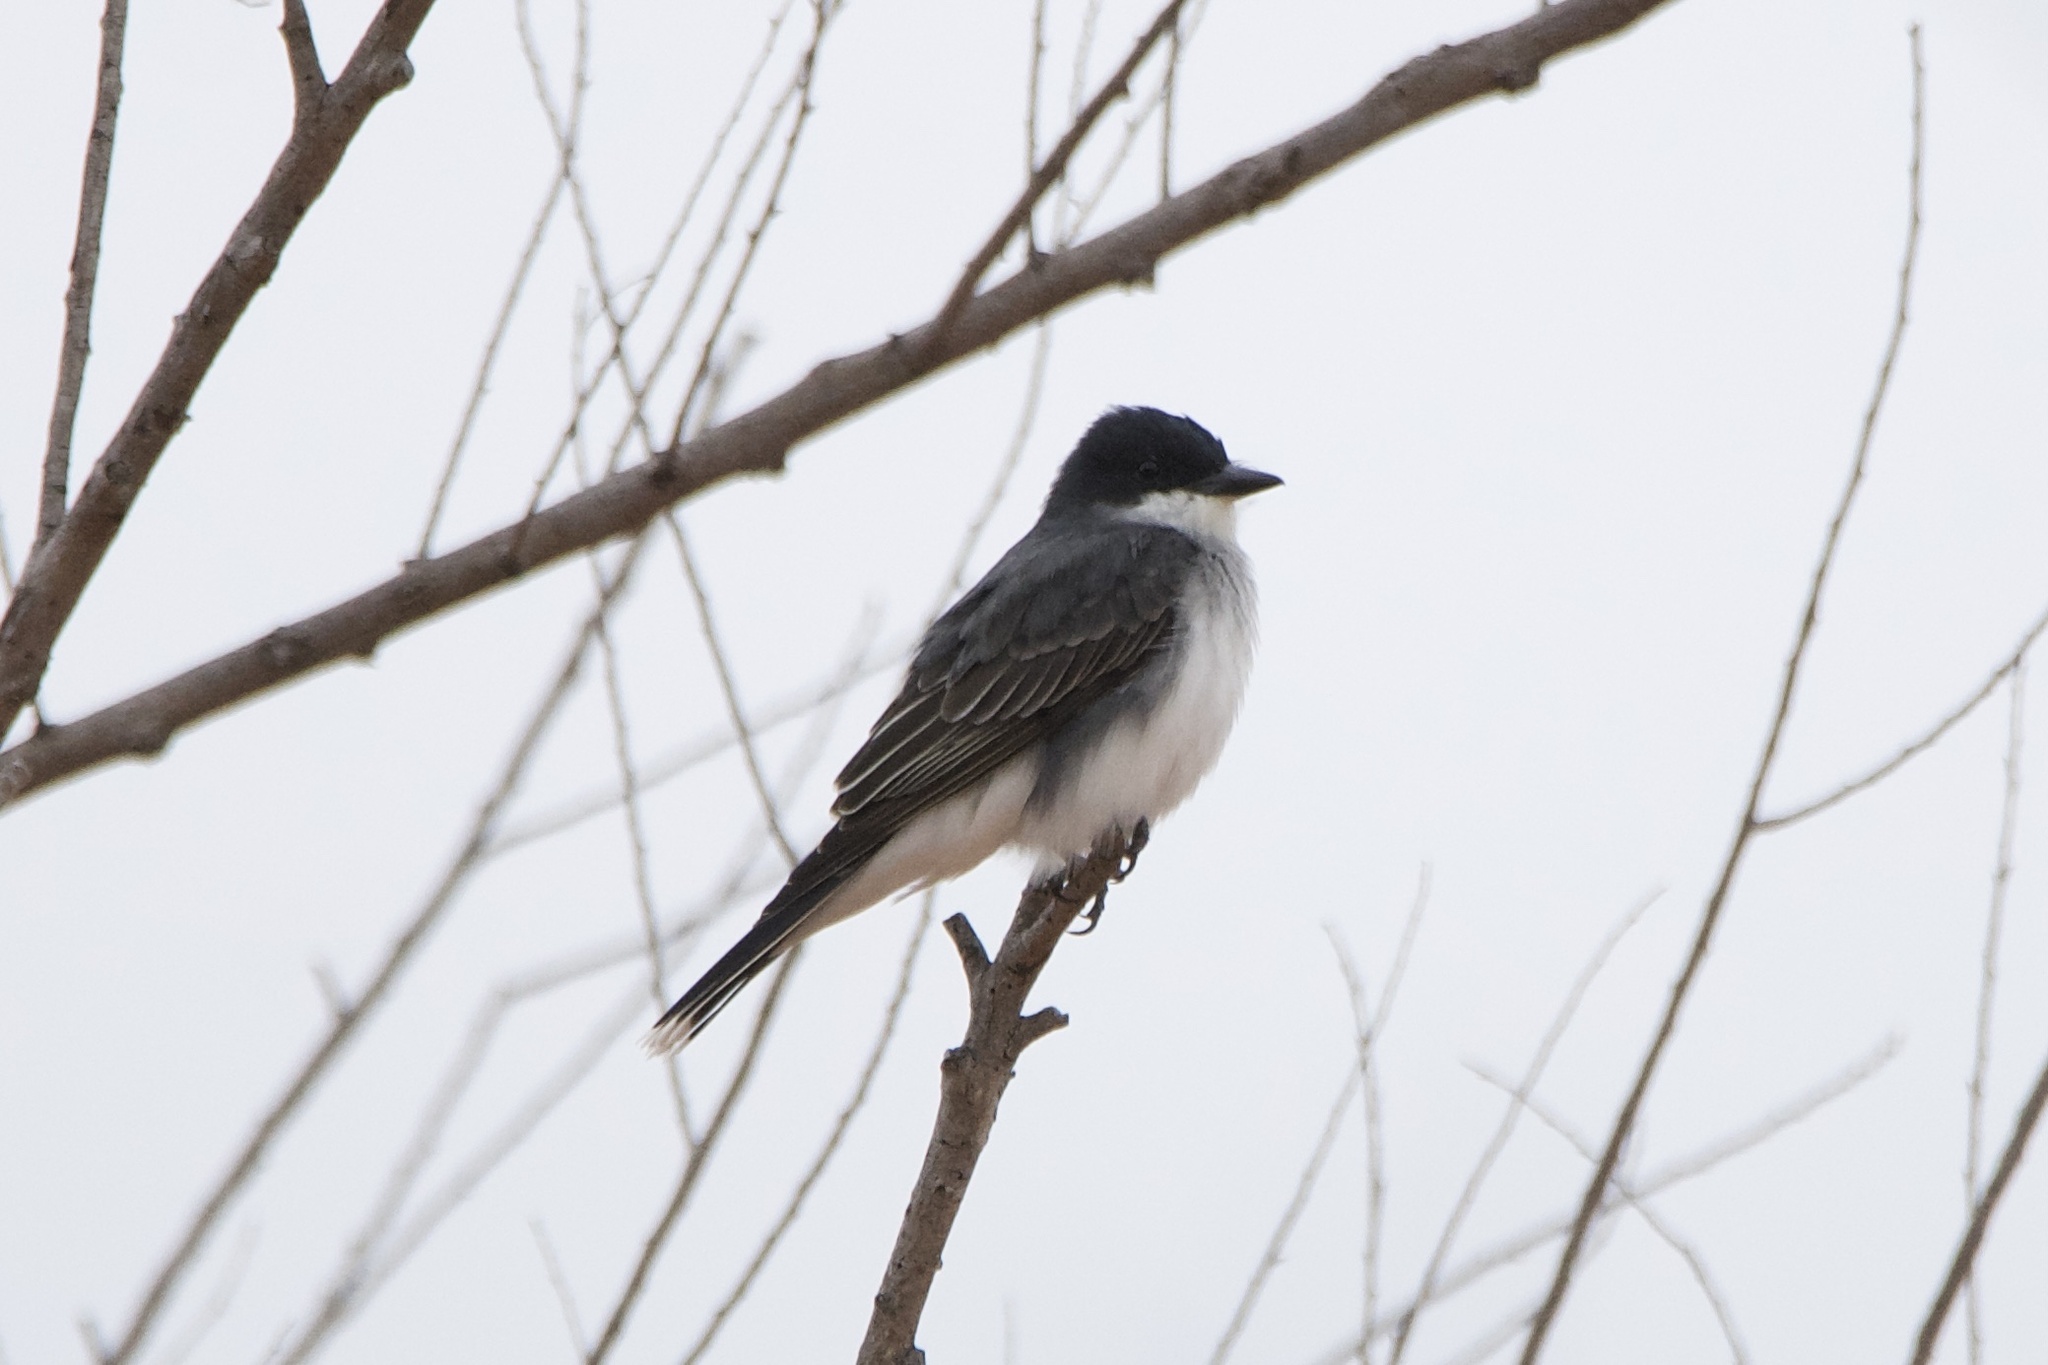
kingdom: Animalia
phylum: Chordata
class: Aves
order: Passeriformes
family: Tyrannidae
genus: Tyrannus
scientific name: Tyrannus tyrannus
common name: Eastern kingbird
